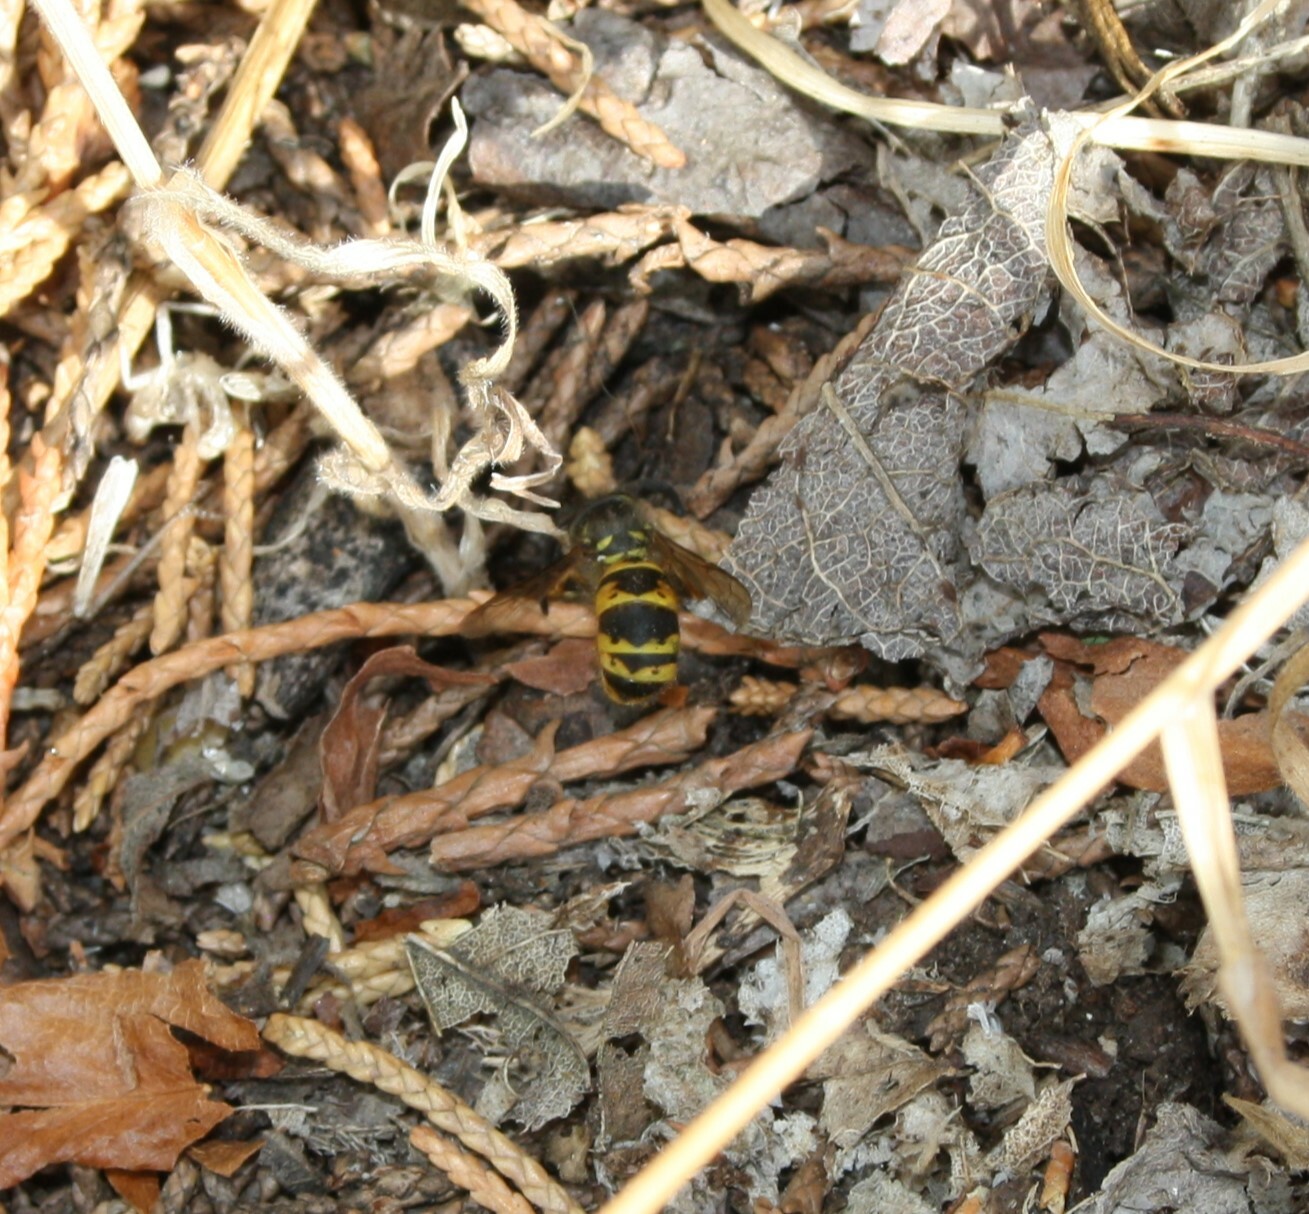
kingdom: Animalia
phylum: Arthropoda
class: Insecta
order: Hymenoptera
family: Vespidae
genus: Vespula
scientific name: Vespula vulgaris
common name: Common wasp
